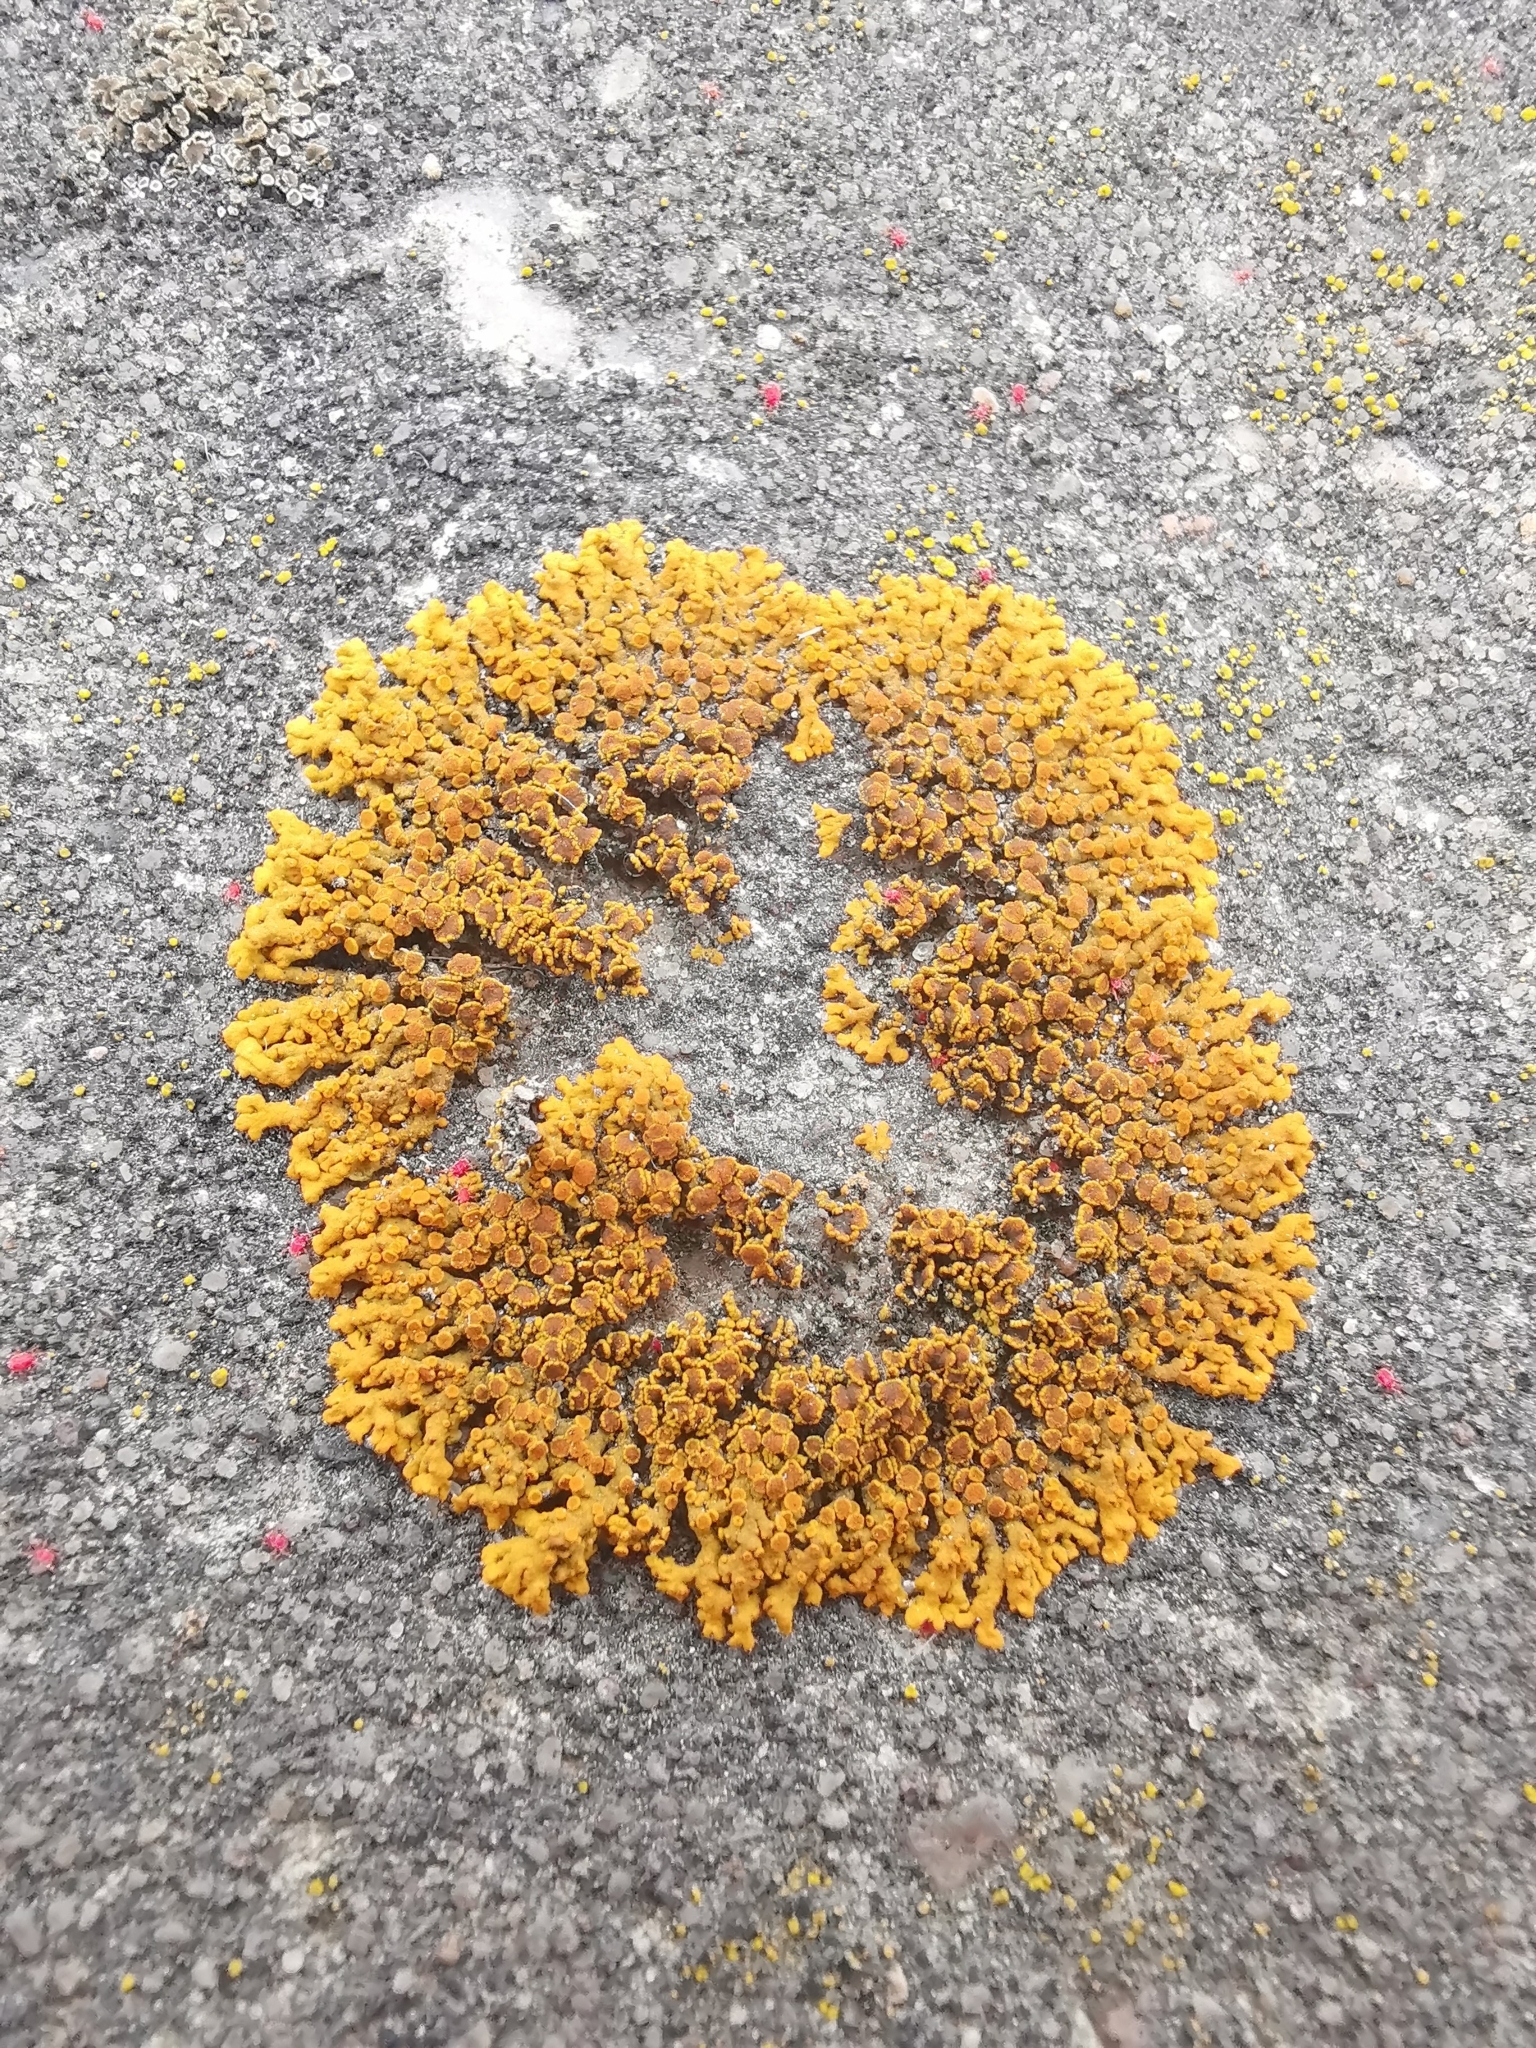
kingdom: Fungi
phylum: Ascomycota
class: Lecanoromycetes
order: Teloschistales
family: Teloschistaceae
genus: Xanthoria
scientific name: Xanthoria elegans
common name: Elegant sunburst lichen
